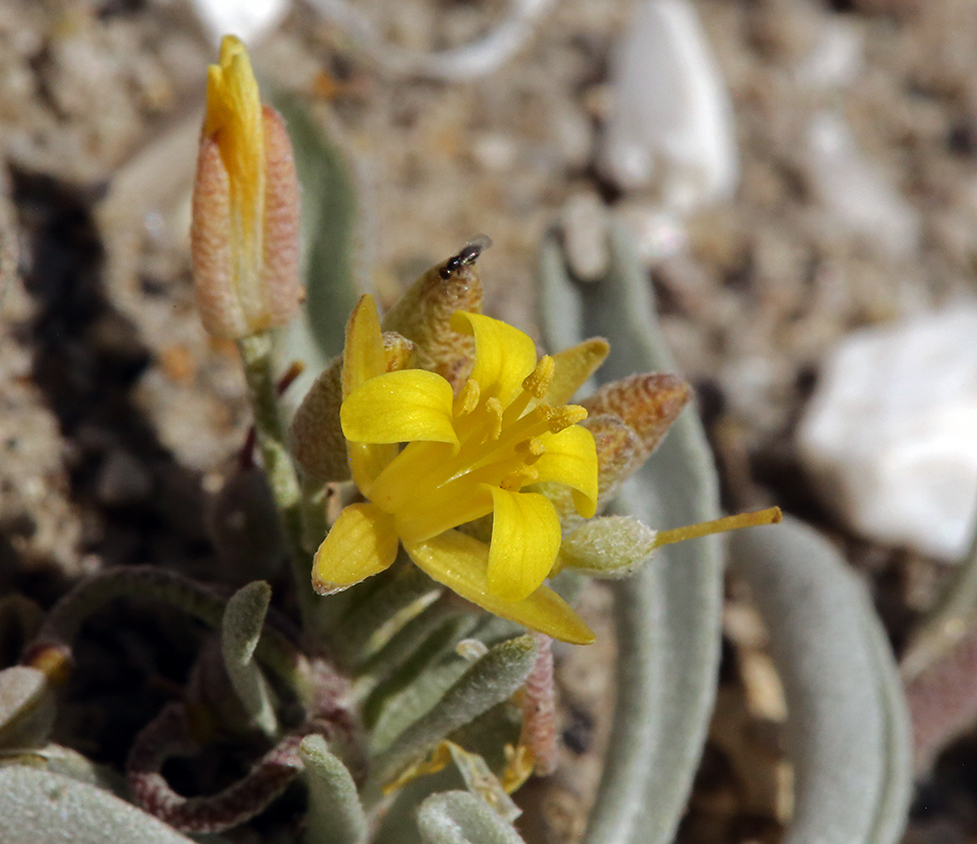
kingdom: Plantae
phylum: Tracheophyta
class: Magnoliopsida
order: Brassicales
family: Brassicaceae
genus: Physaria
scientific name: Physaria ludoviciana
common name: Foothill bladderpod
